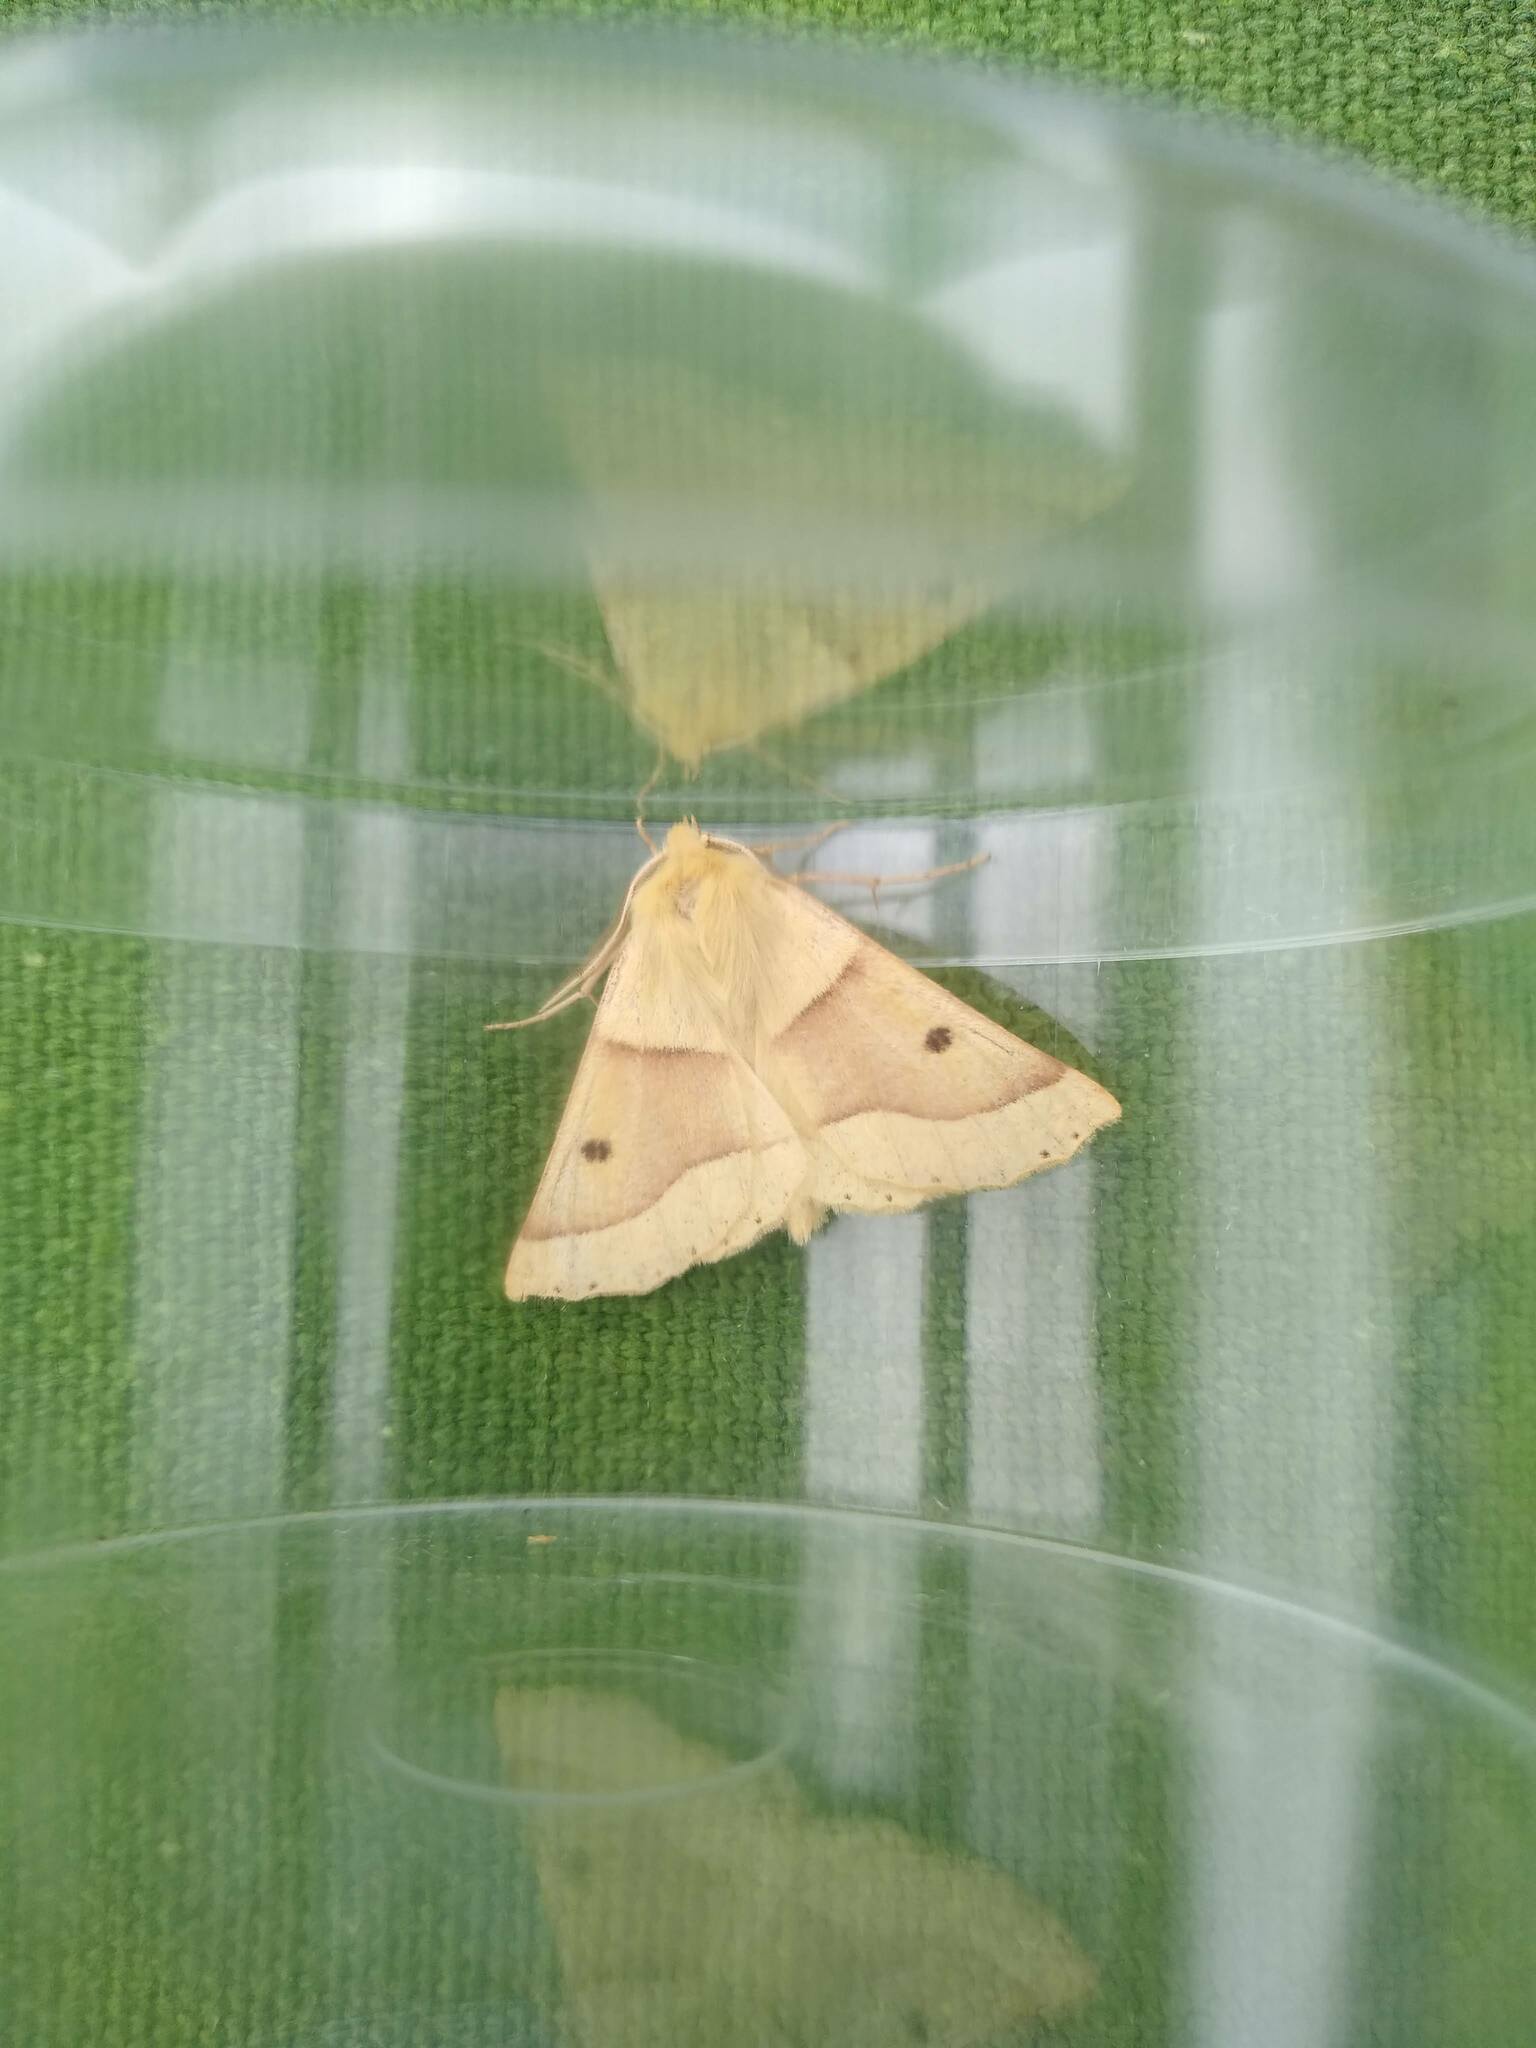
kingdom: Animalia
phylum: Arthropoda
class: Insecta
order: Lepidoptera
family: Geometridae
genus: Crocallis
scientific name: Crocallis elinguaria
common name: Scalloped oak
